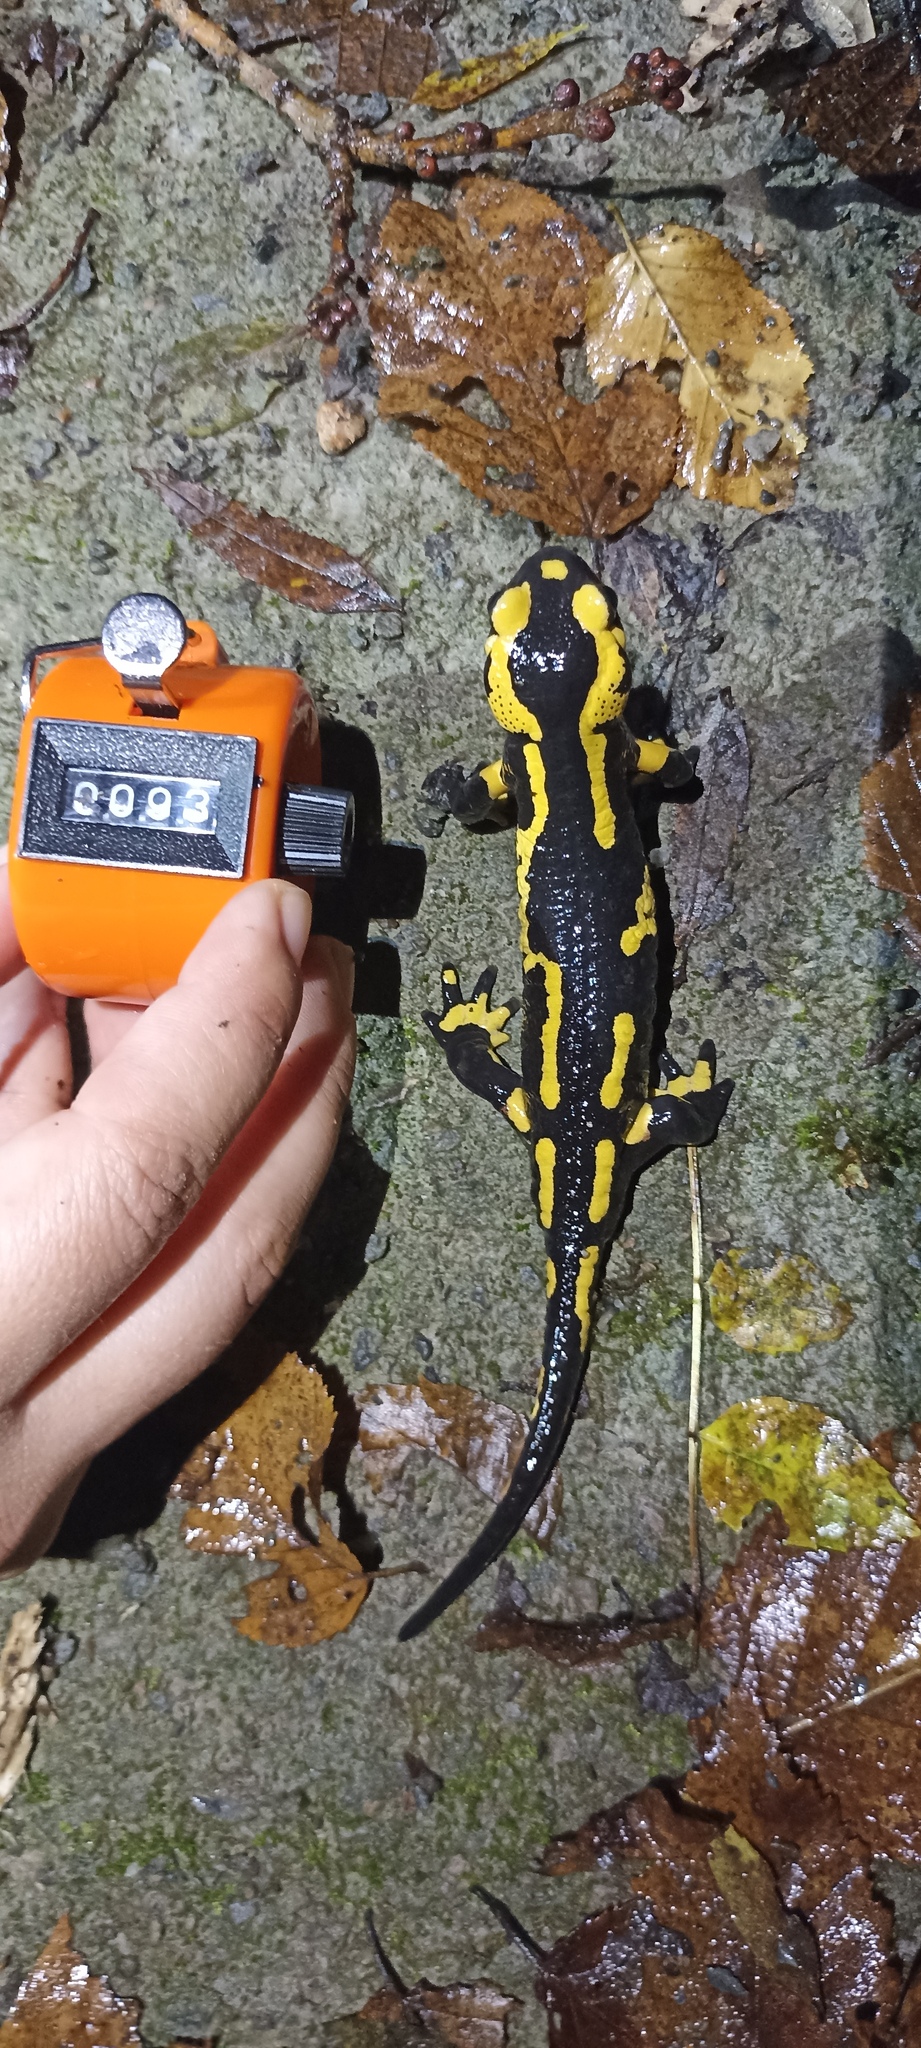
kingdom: Animalia
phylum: Chordata
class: Amphibia
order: Caudata
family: Salamandridae
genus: Salamandra
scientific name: Salamandra salamandra
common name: Fire salamander
